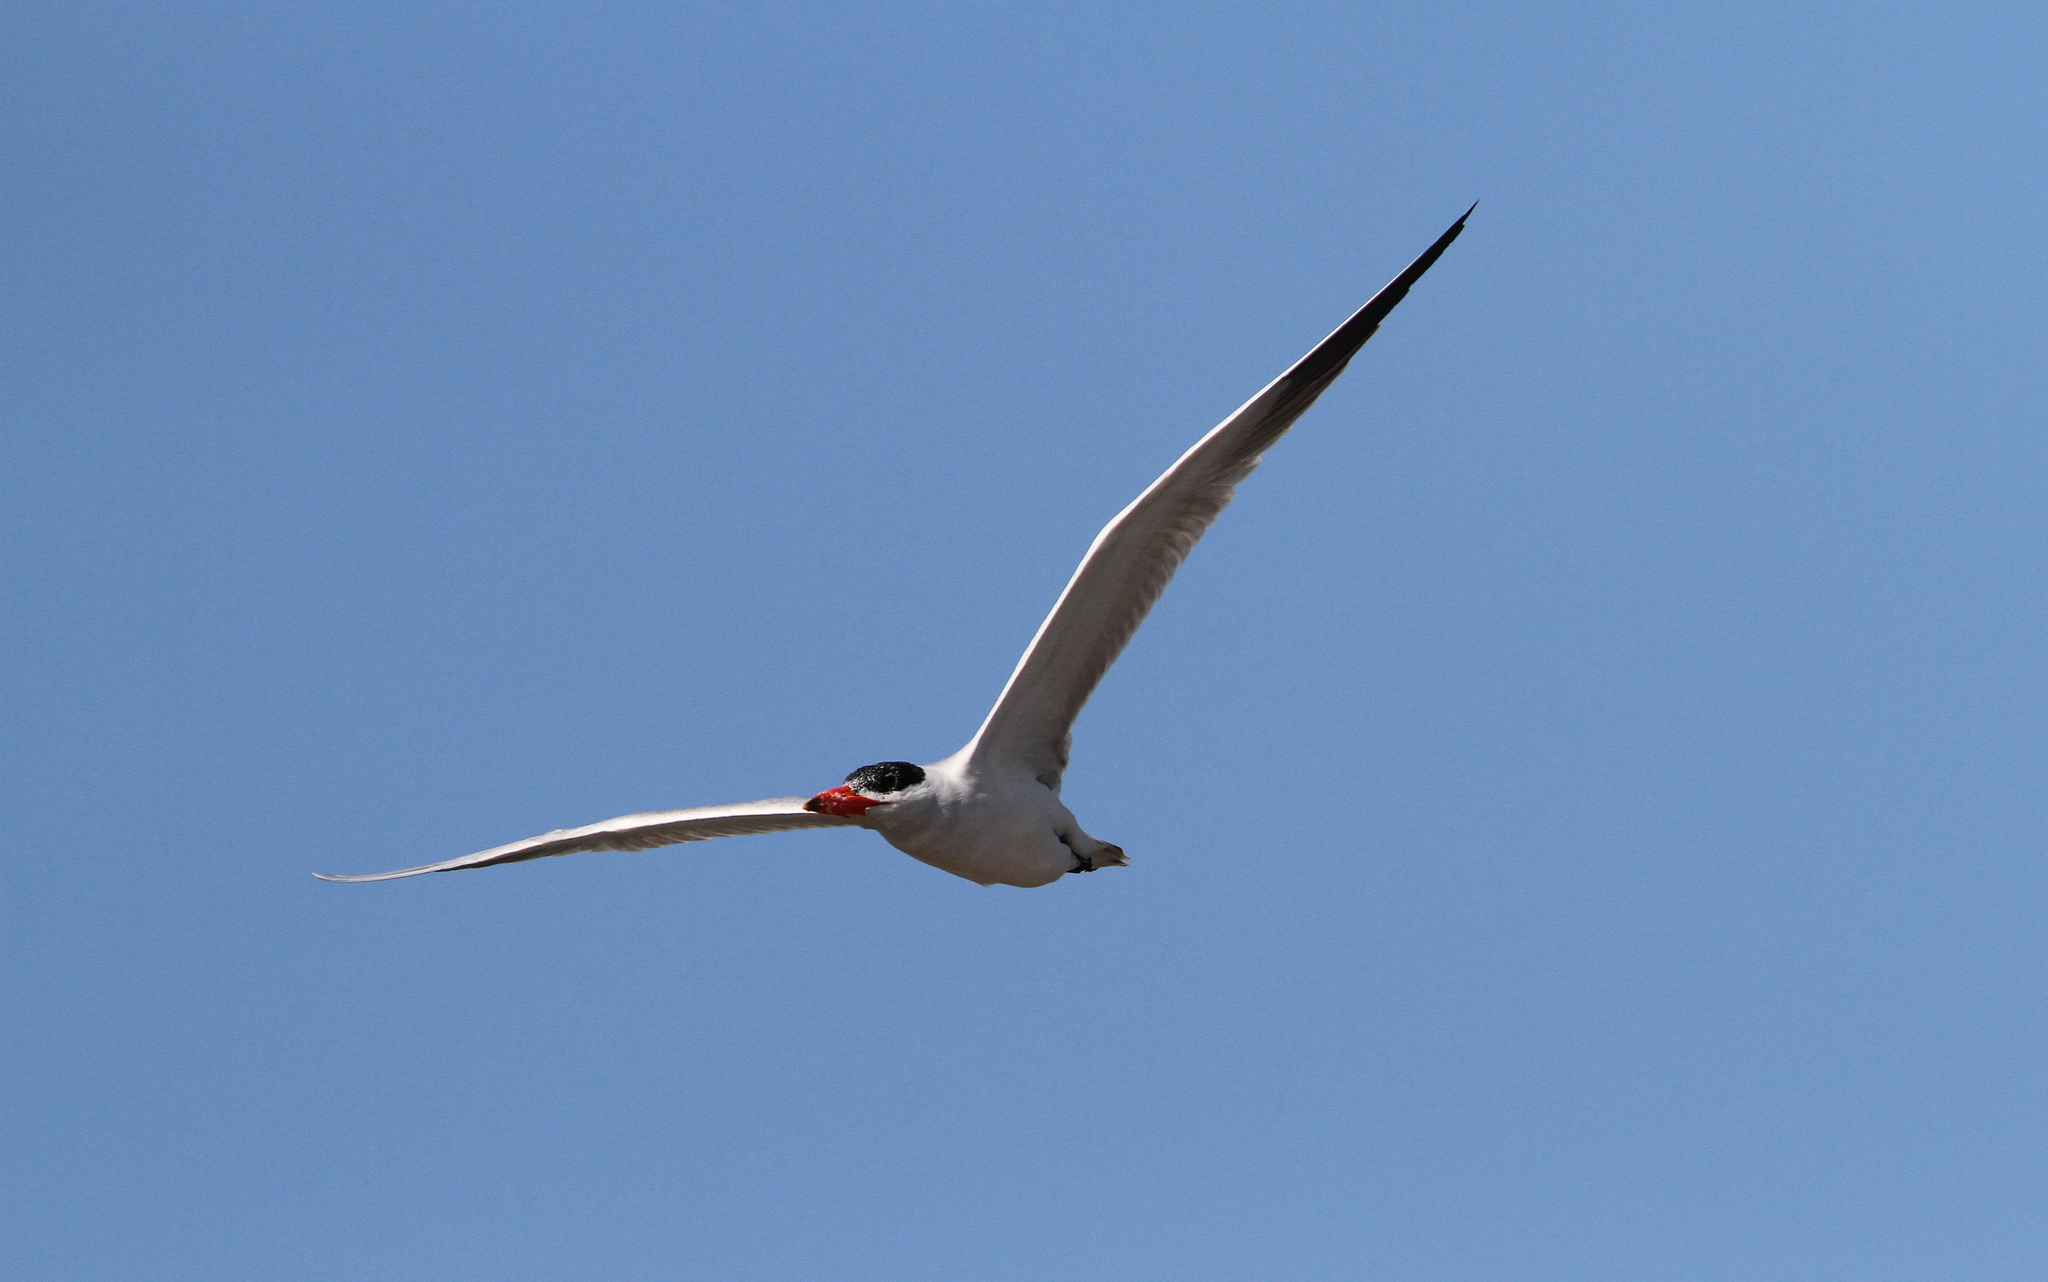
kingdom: Animalia
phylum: Chordata
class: Aves
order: Charadriiformes
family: Laridae
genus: Hydroprogne
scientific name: Hydroprogne caspia
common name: Caspian tern
